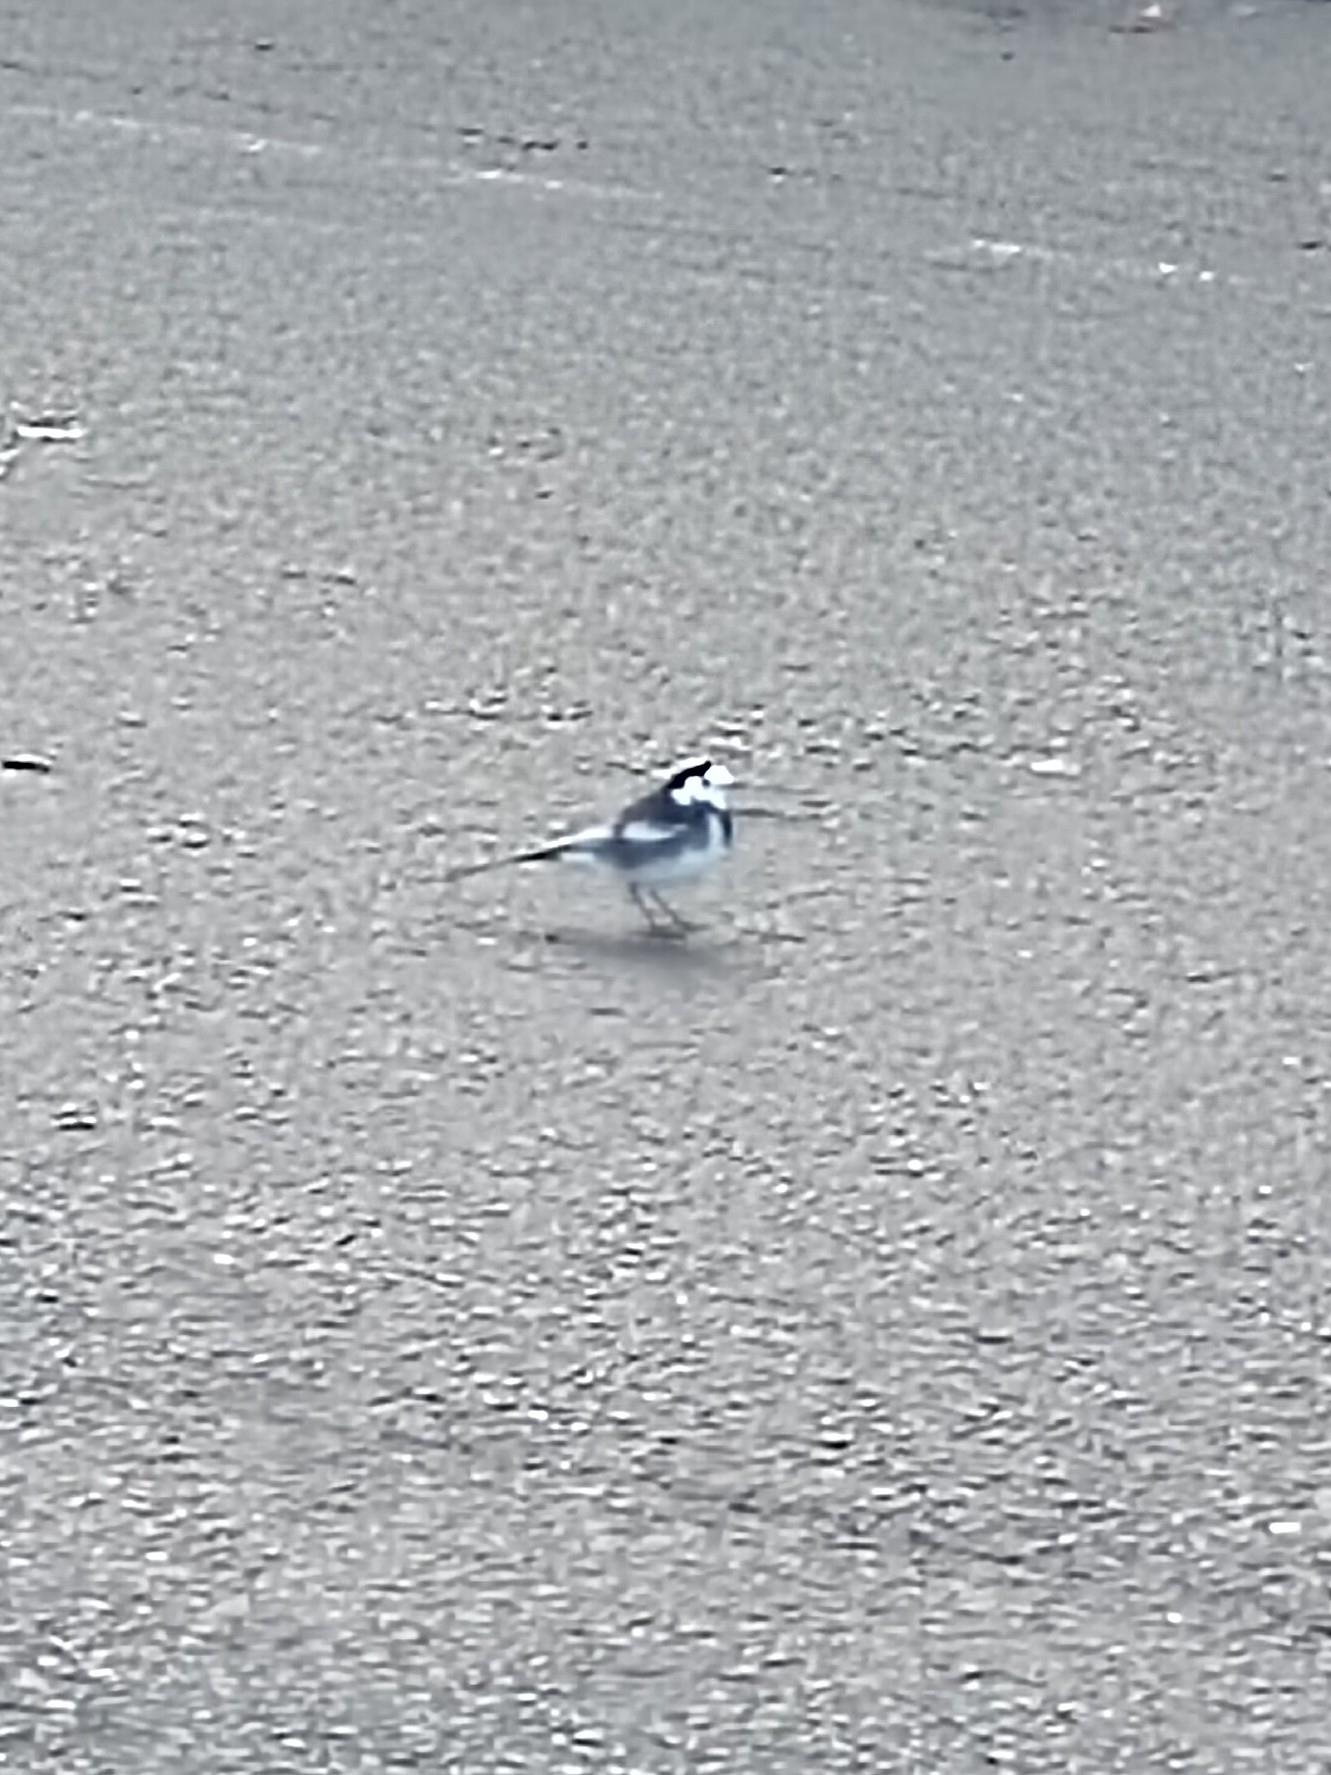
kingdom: Animalia
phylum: Chordata
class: Aves
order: Passeriformes
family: Motacillidae
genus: Motacilla
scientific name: Motacilla alba
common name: White wagtail
